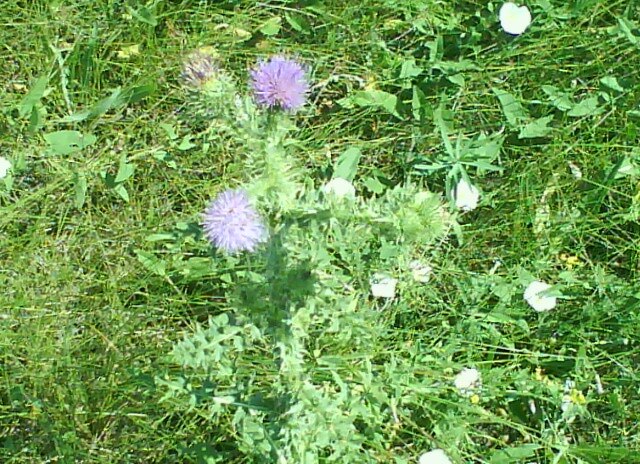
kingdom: Plantae
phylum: Tracheophyta
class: Magnoliopsida
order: Asterales
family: Asteraceae
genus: Carduus
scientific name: Carduus acanthoides
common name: Plumeless thistle
